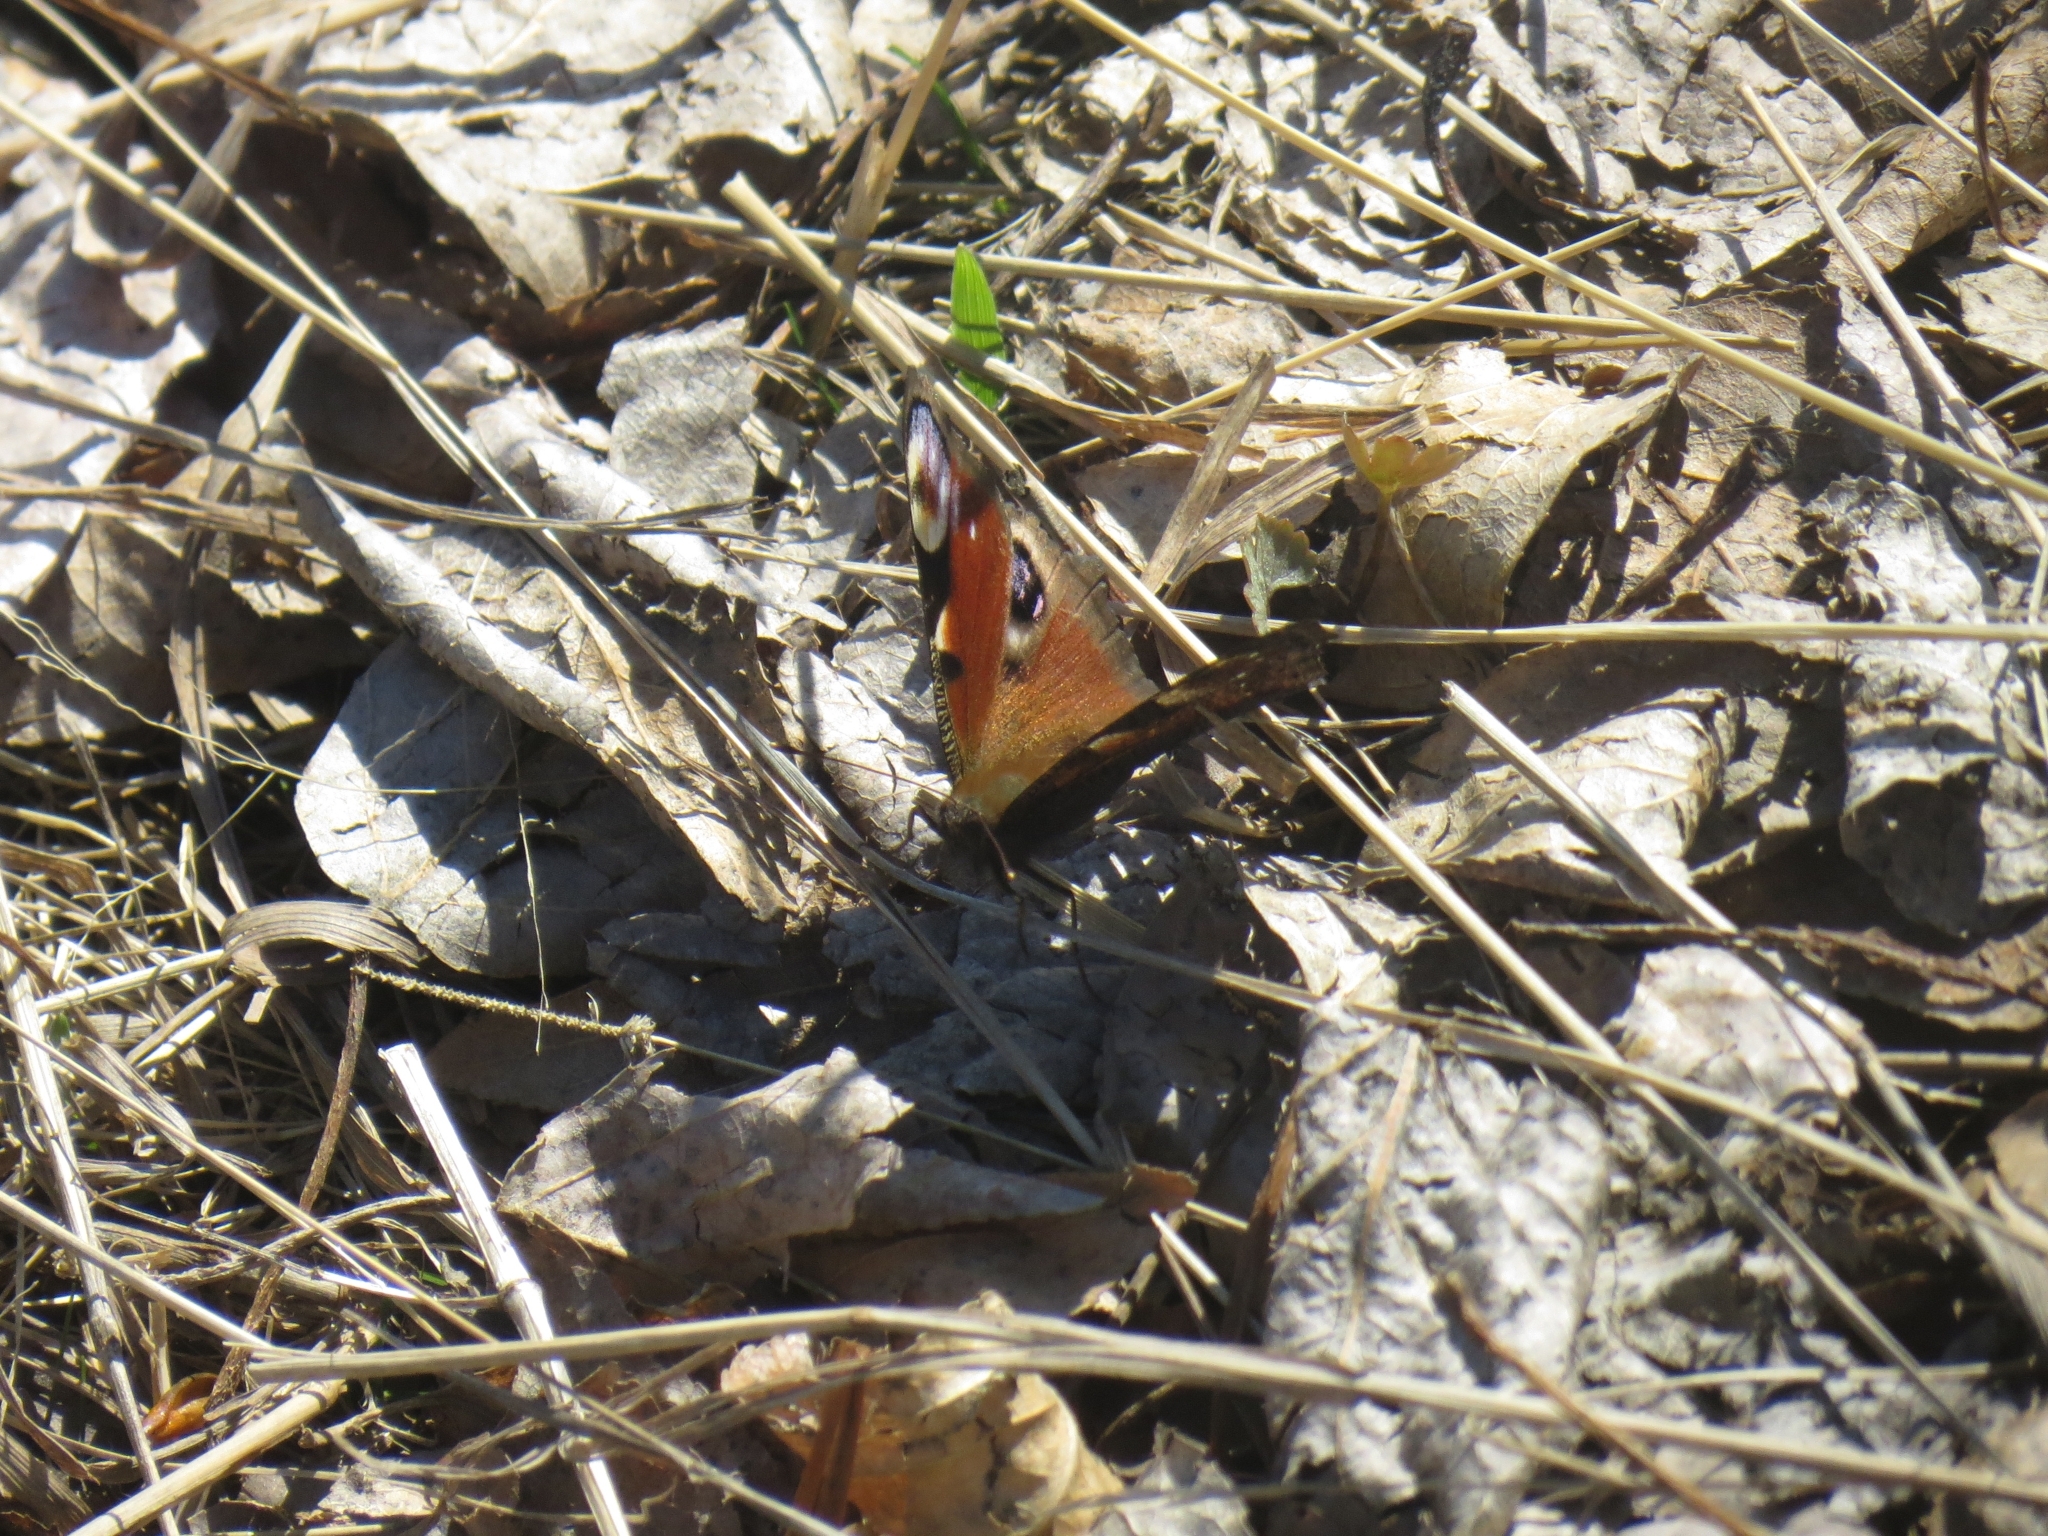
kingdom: Animalia
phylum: Arthropoda
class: Insecta
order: Lepidoptera
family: Nymphalidae
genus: Aglais
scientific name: Aglais io
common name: Peacock
